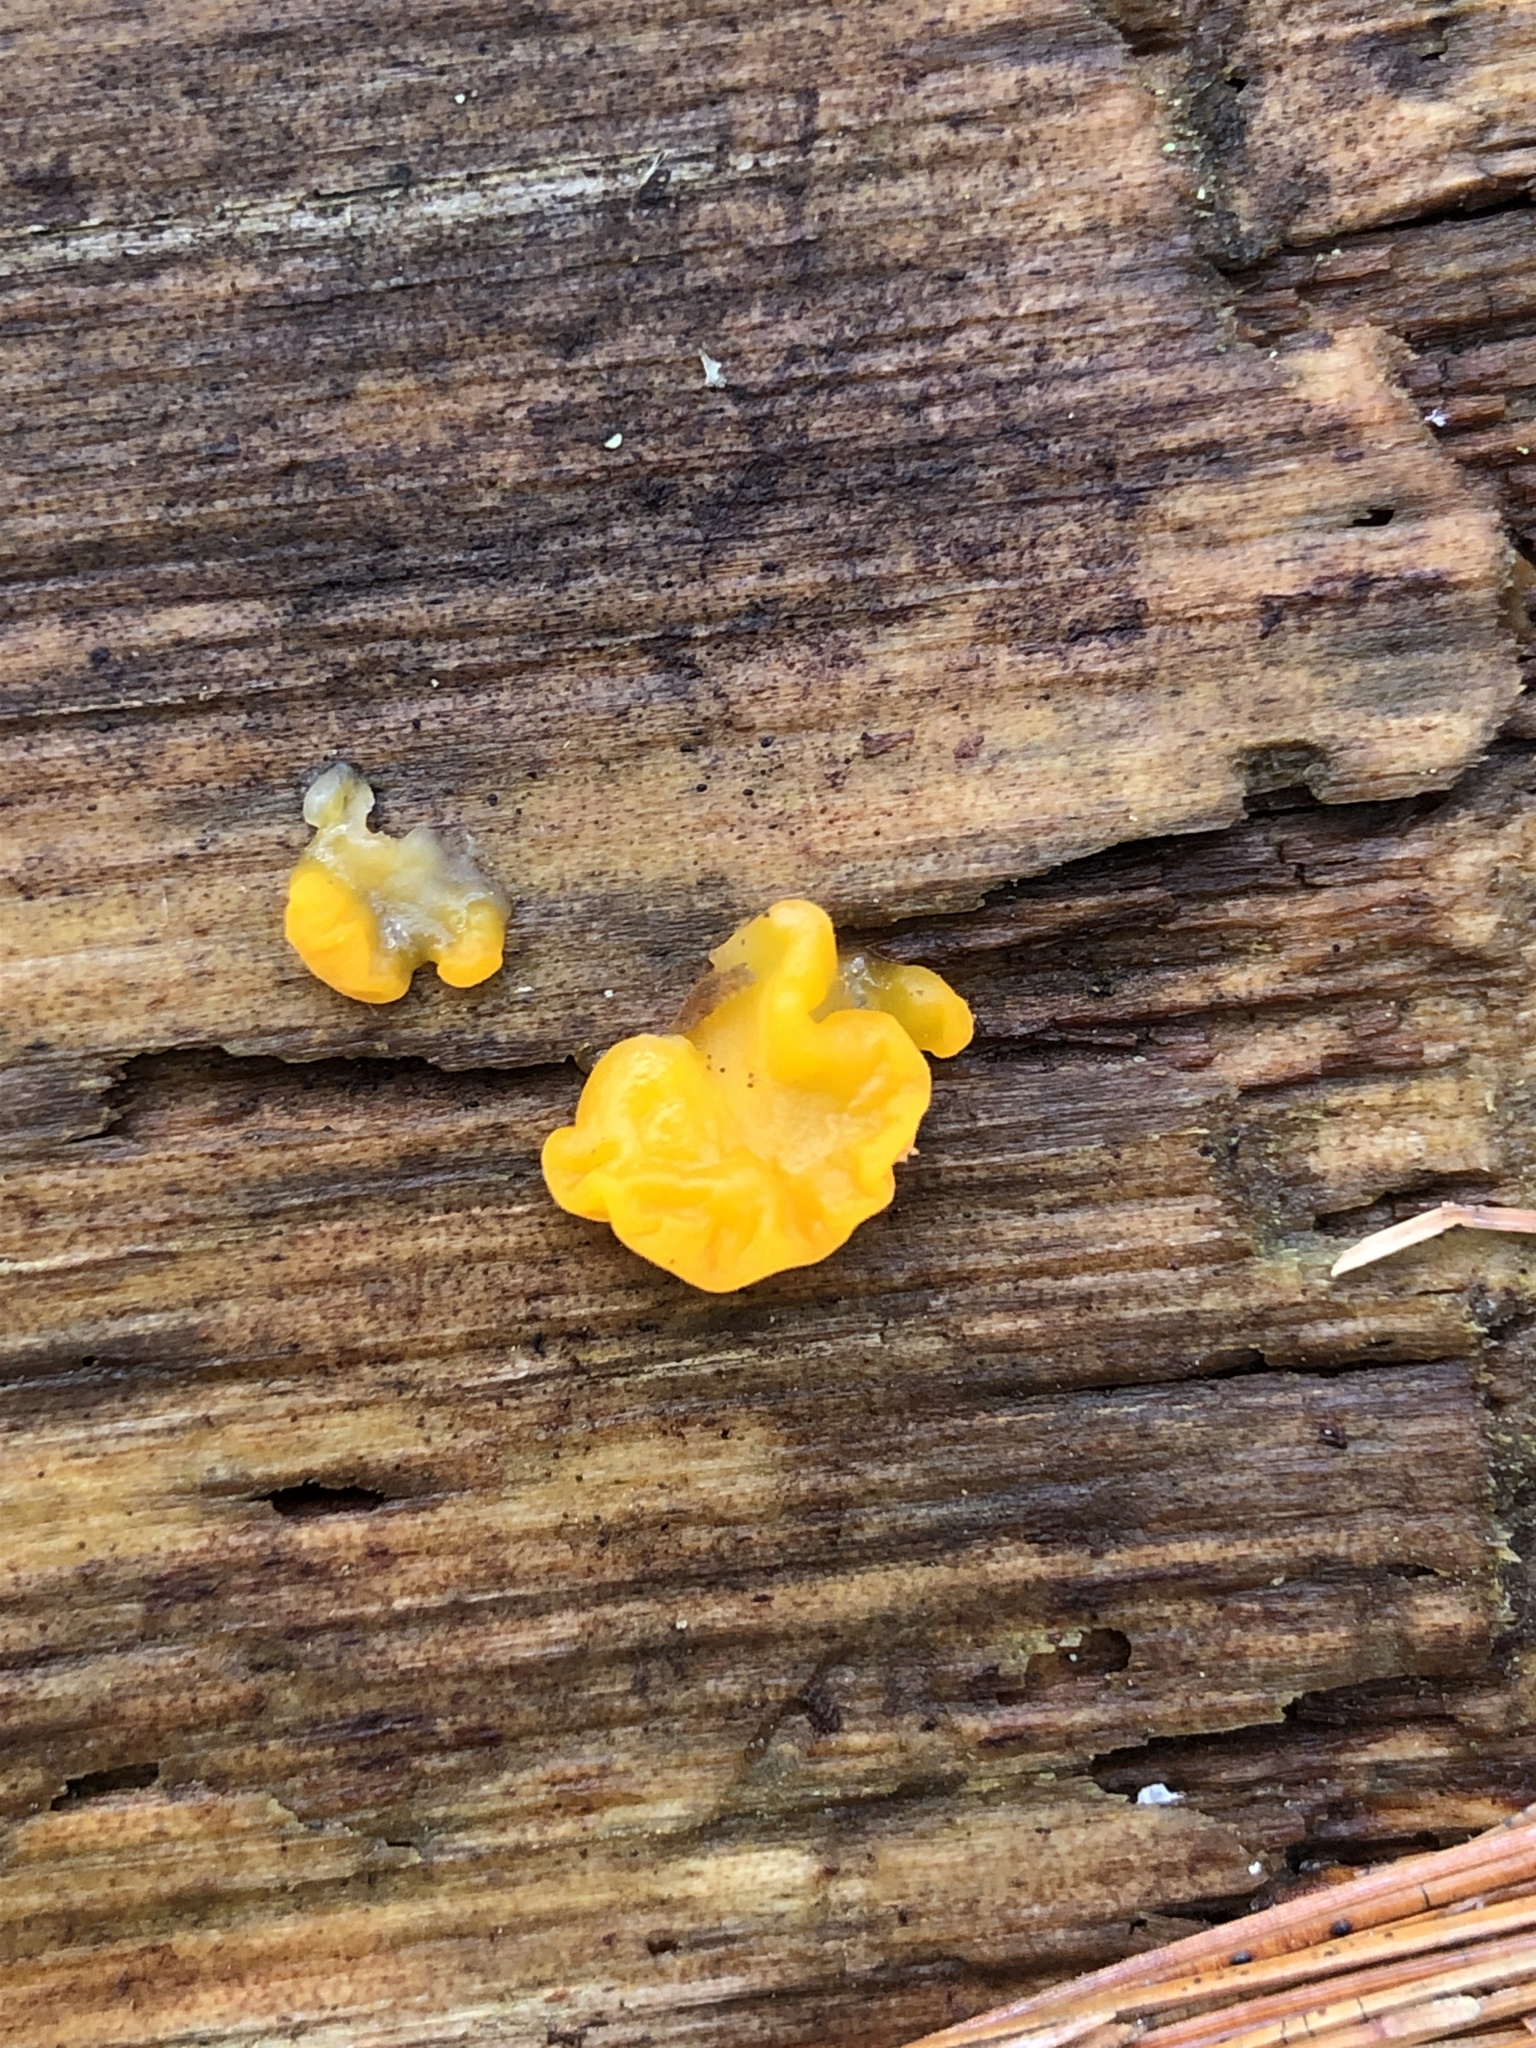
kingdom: Fungi
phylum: Basidiomycota
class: Dacrymycetes
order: Dacrymycetales
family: Dacrymycetaceae
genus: Dacrymyces
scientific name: Dacrymyces chrysospermus
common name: Orange jelly spot
